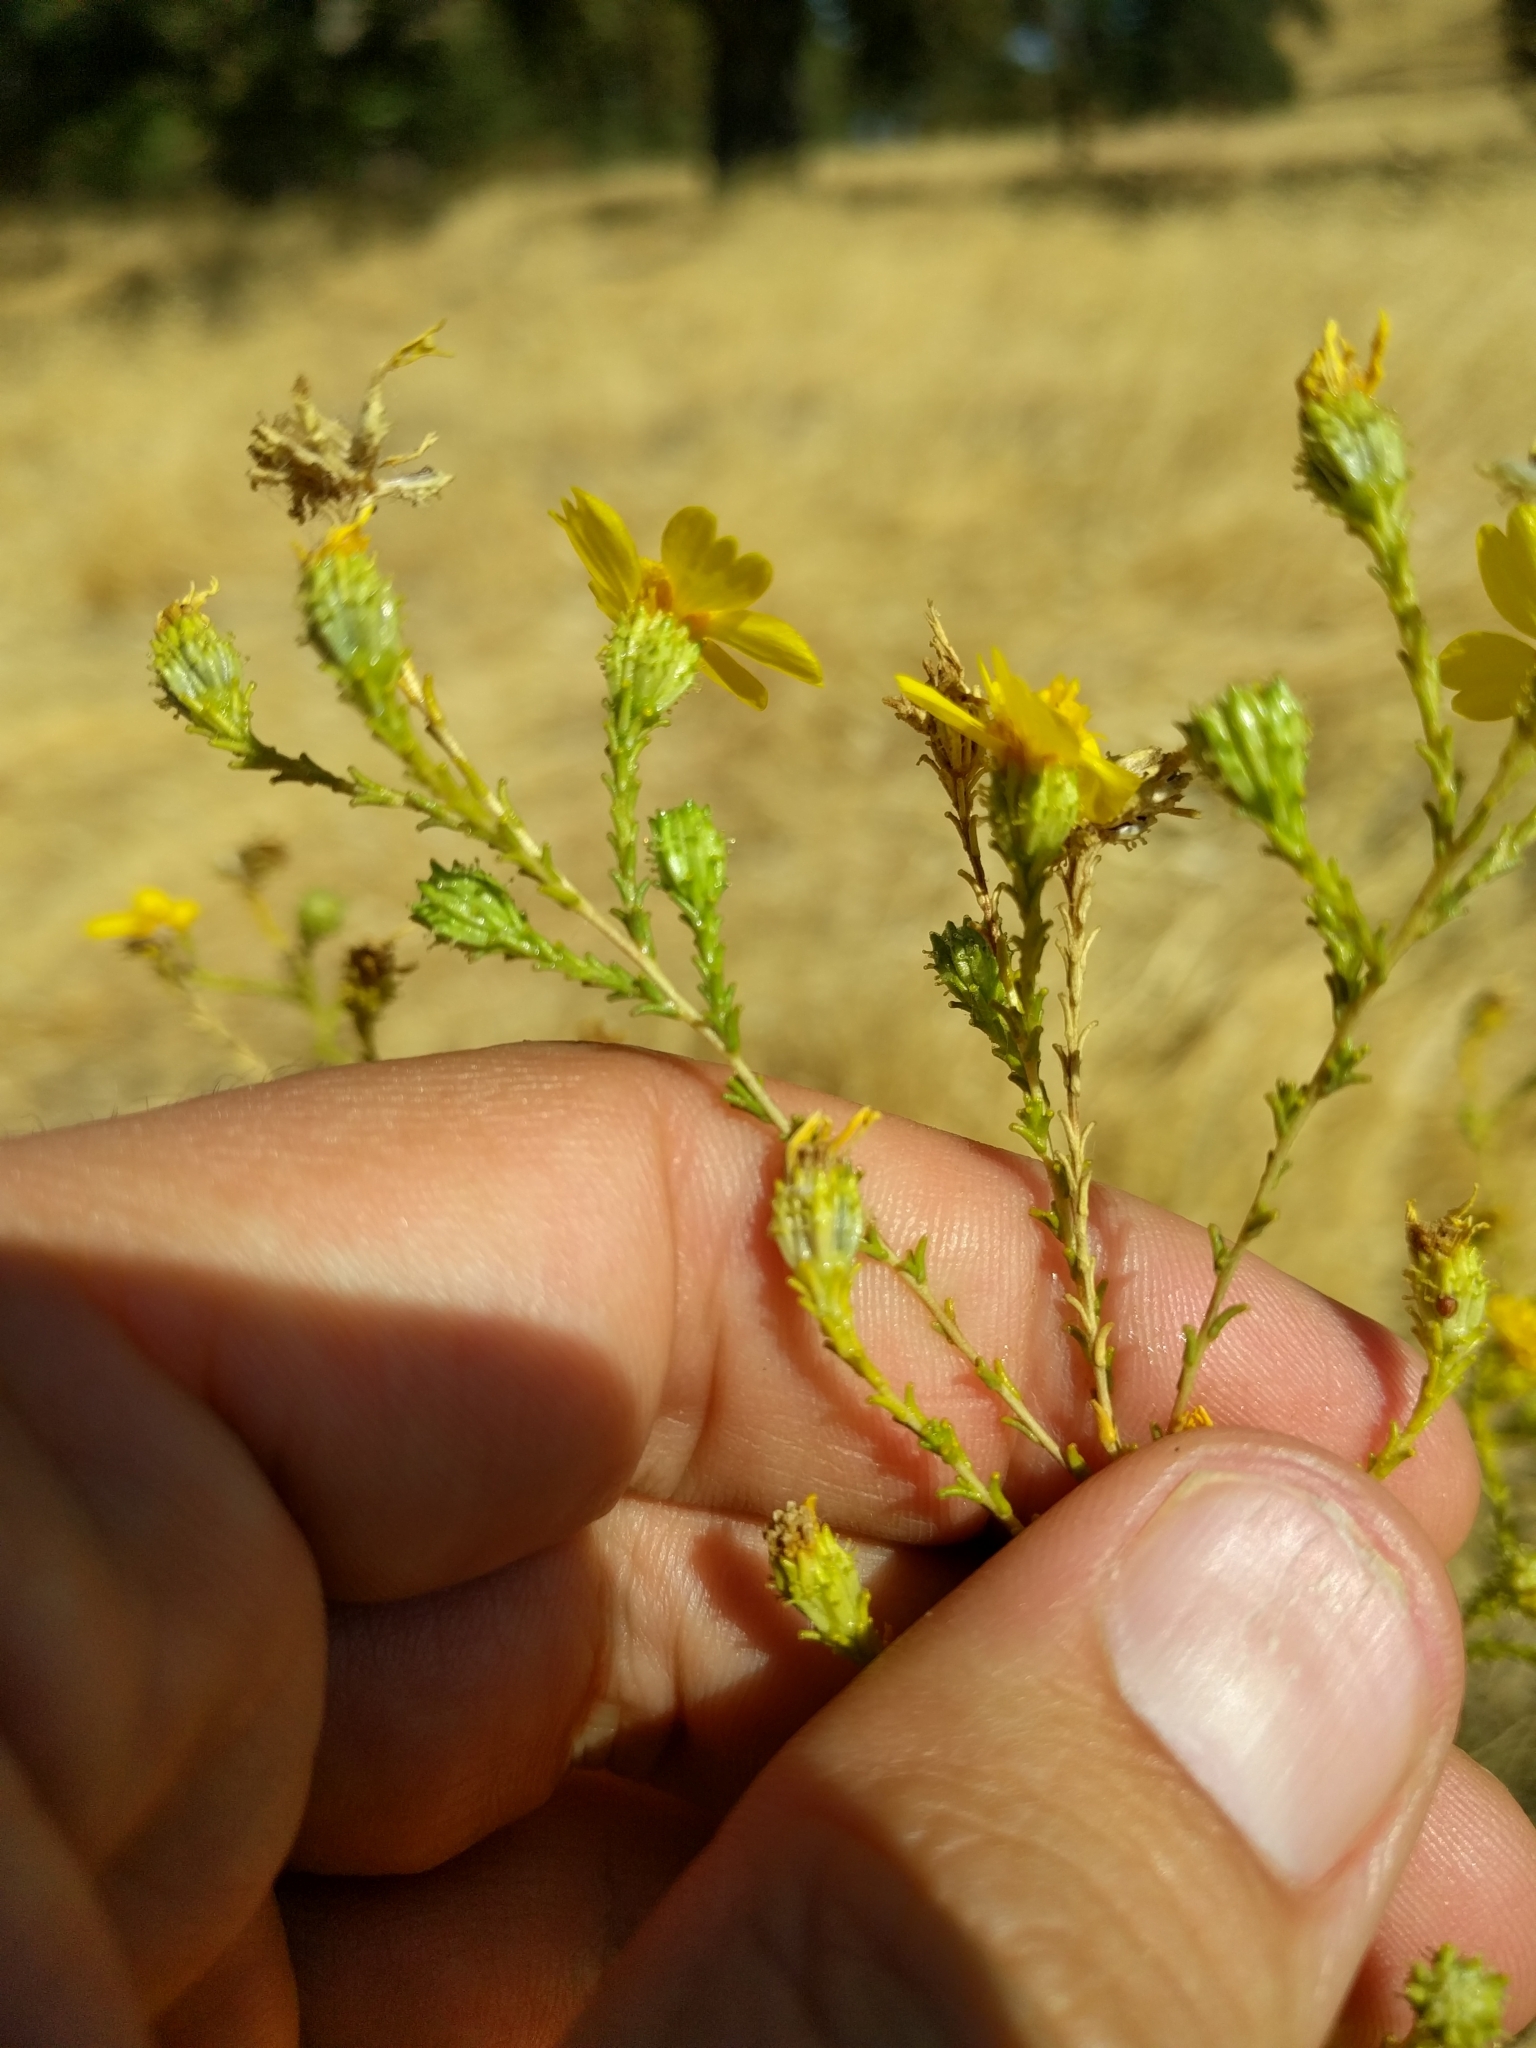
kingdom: Plantae
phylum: Tracheophyta
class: Magnoliopsida
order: Asterales
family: Asteraceae
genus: Holocarpha
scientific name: Holocarpha obconica
